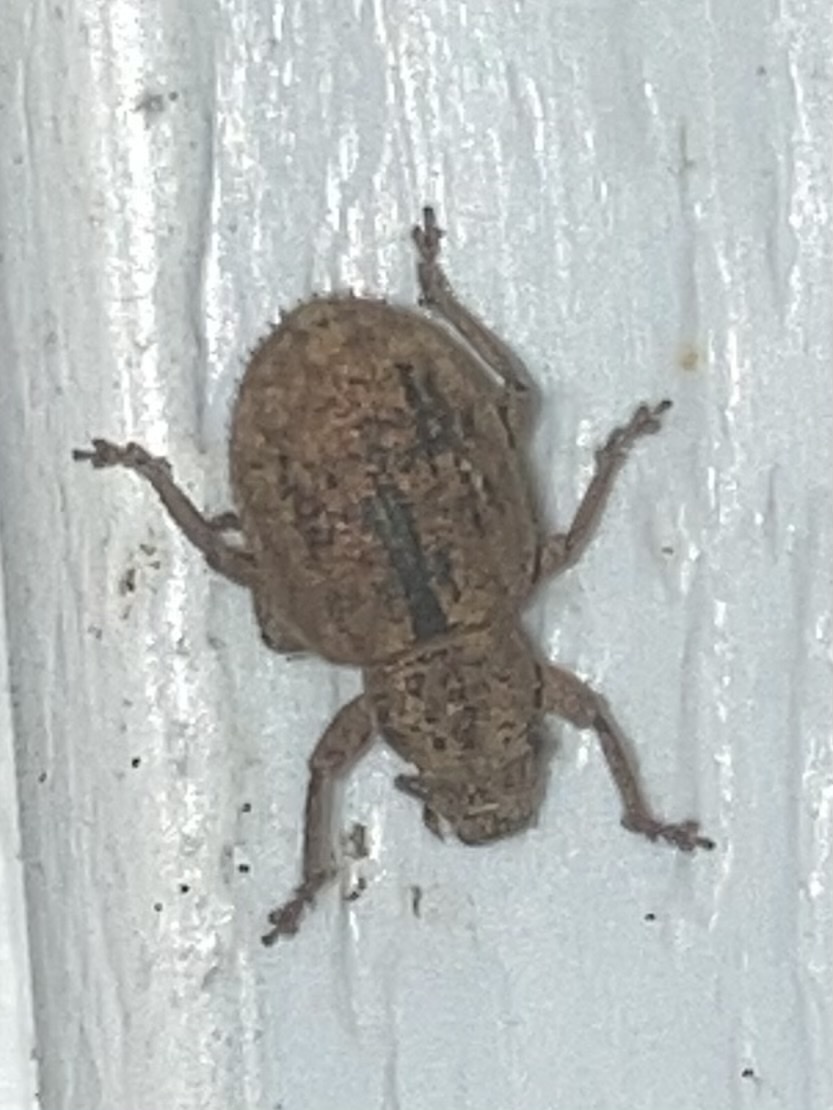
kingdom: Animalia
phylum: Arthropoda
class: Insecta
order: Coleoptera
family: Curculionidae
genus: Strophosoma
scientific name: Strophosoma melanogrammum
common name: Weevil
